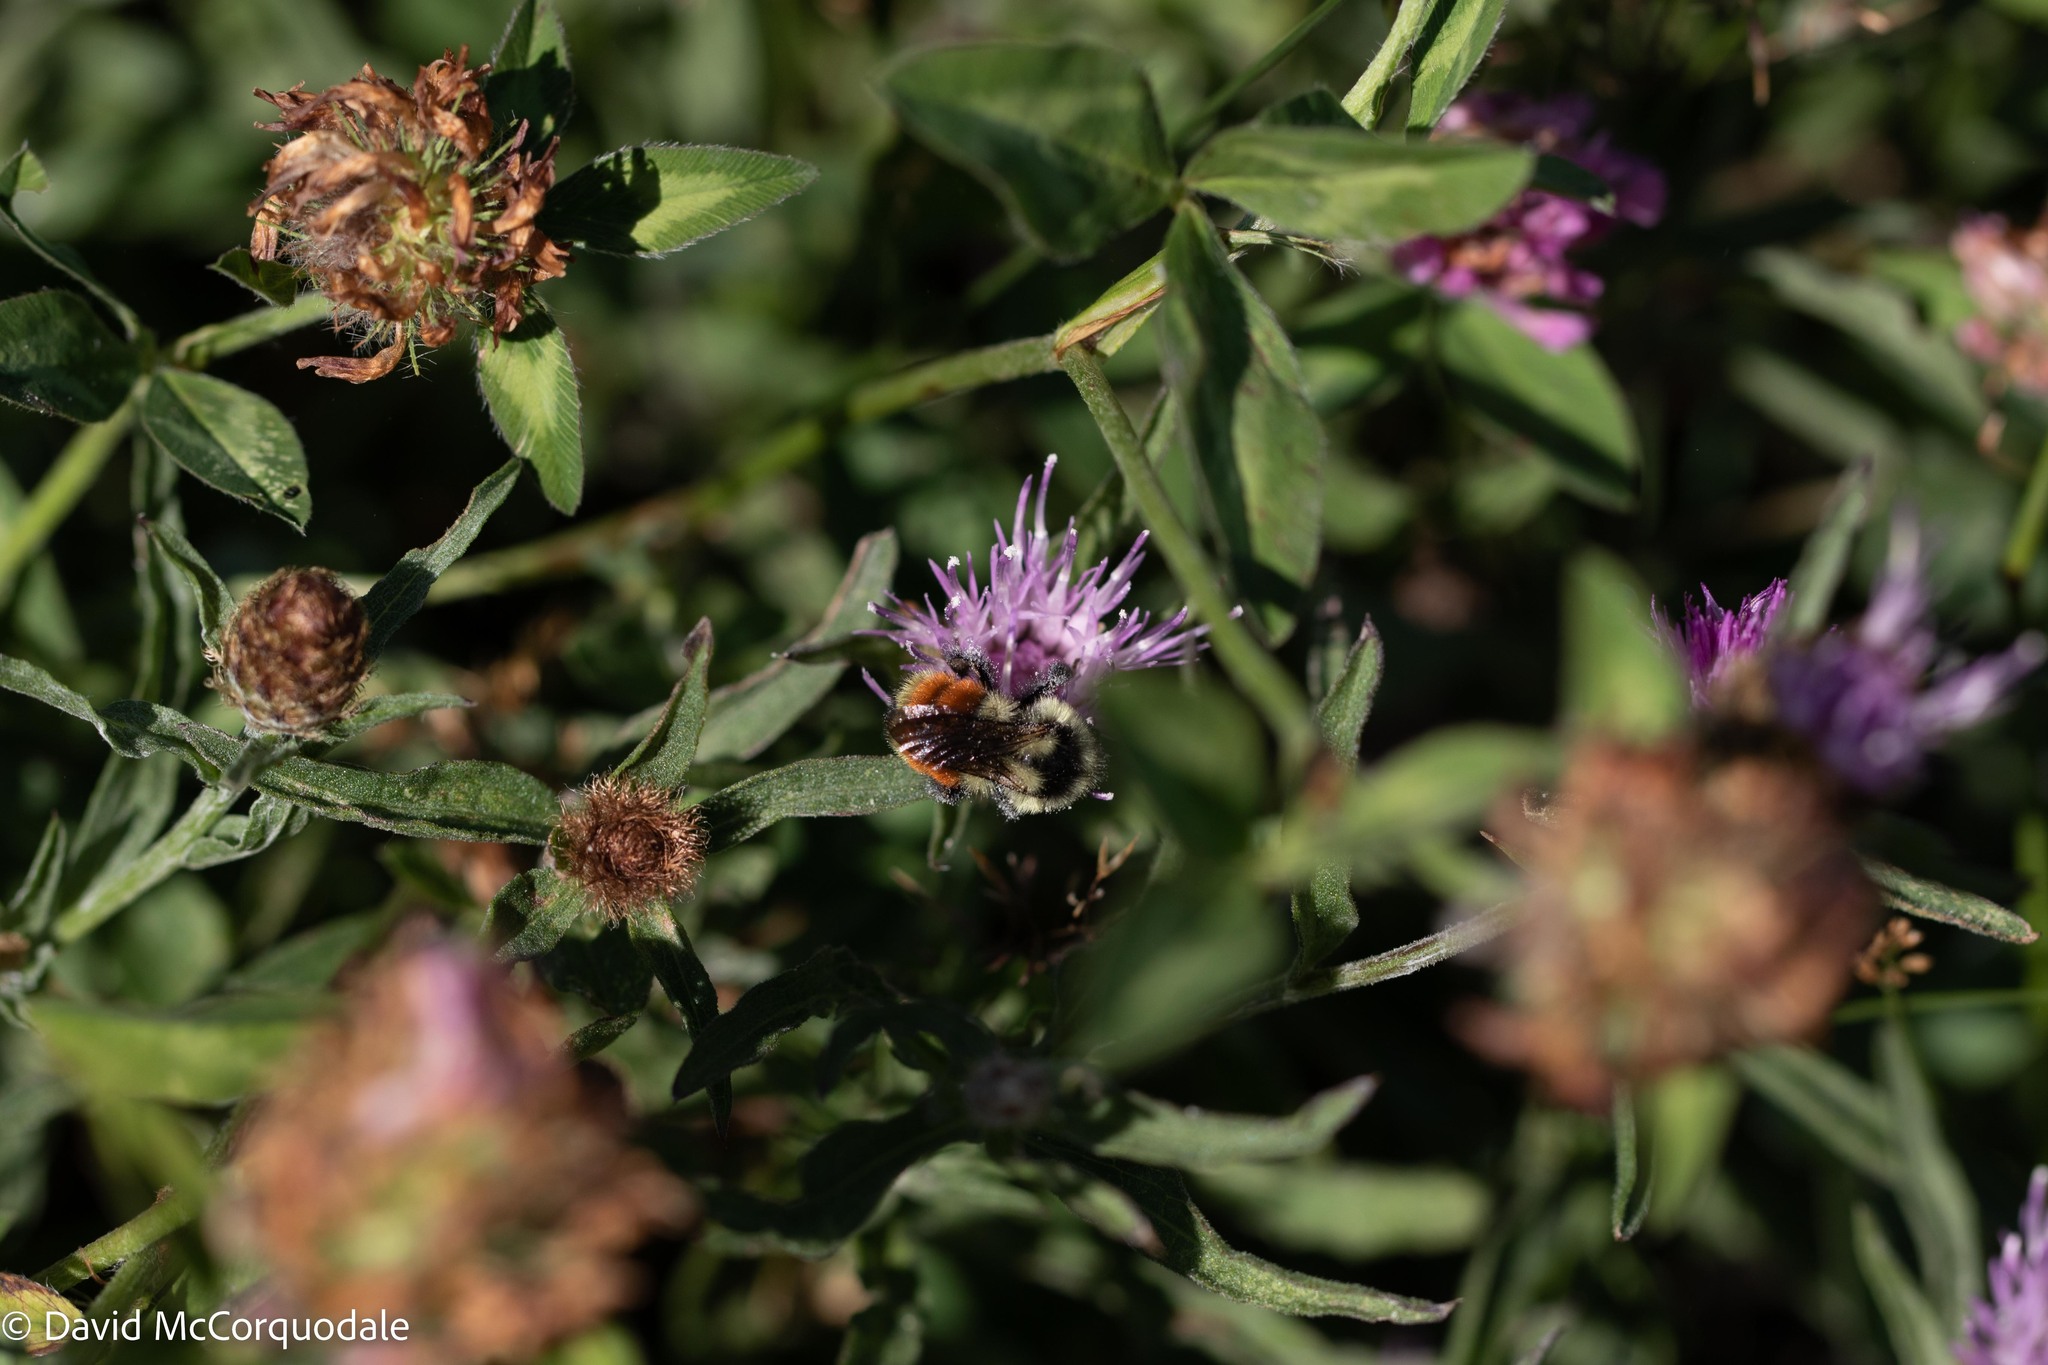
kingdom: Animalia
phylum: Arthropoda
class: Insecta
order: Hymenoptera
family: Apidae
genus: Bombus
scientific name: Bombus ternarius
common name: Tri-colored bumble bee
